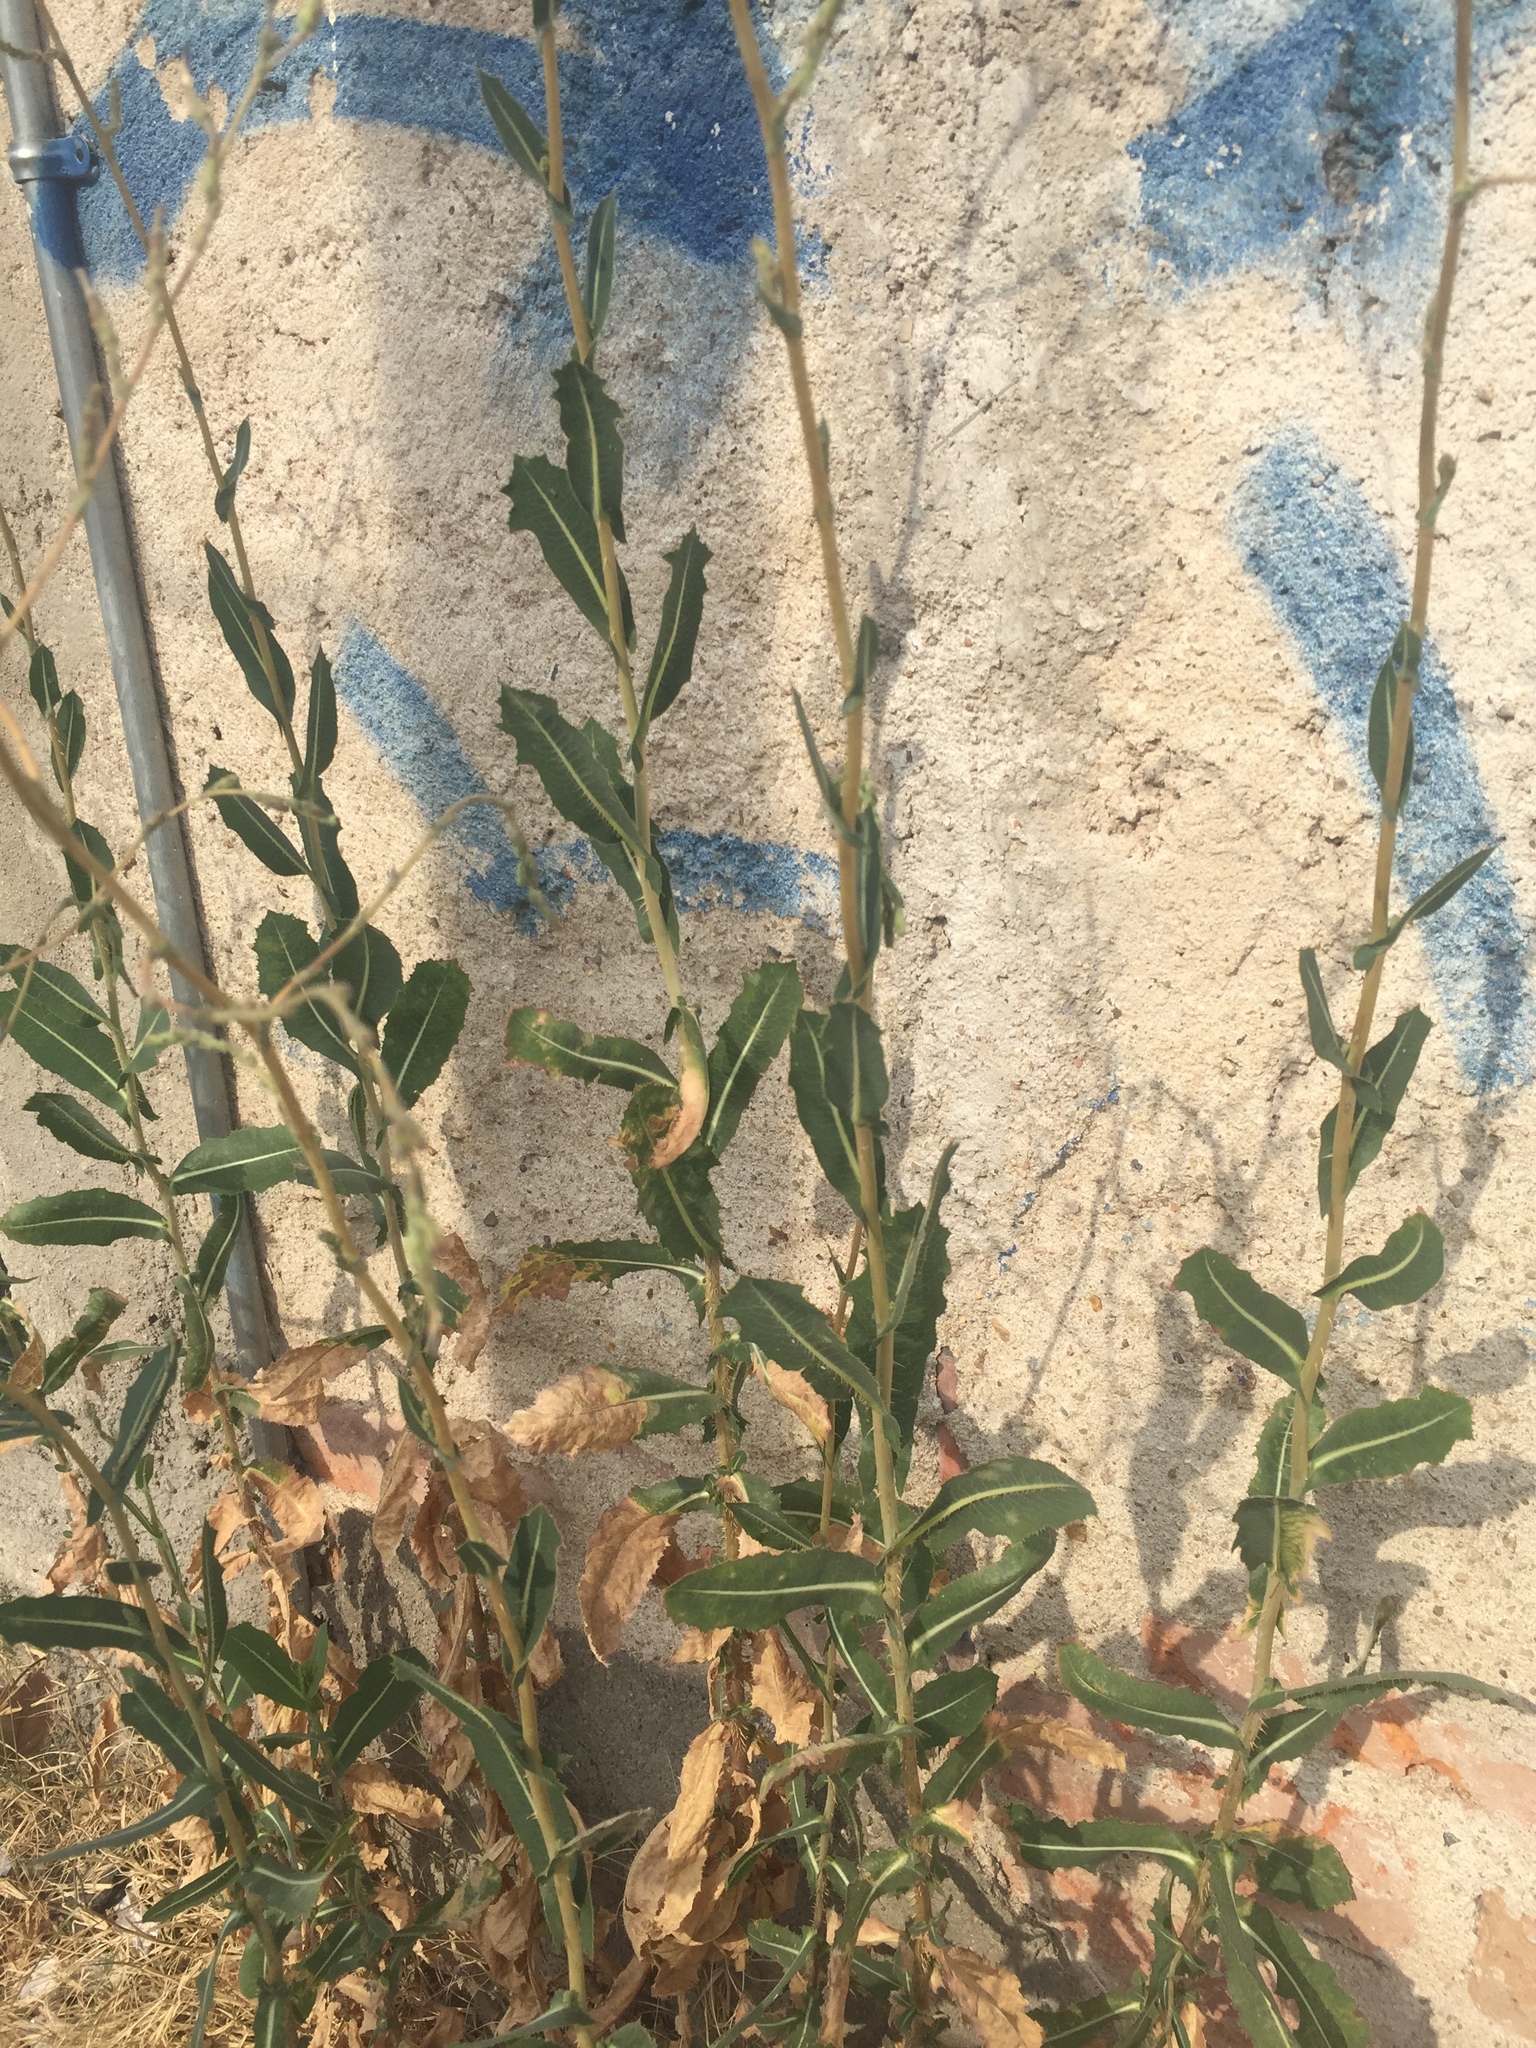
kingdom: Plantae
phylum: Tracheophyta
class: Magnoliopsida
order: Asterales
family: Asteraceae
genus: Lactuca
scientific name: Lactuca serriola
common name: Prickly lettuce
